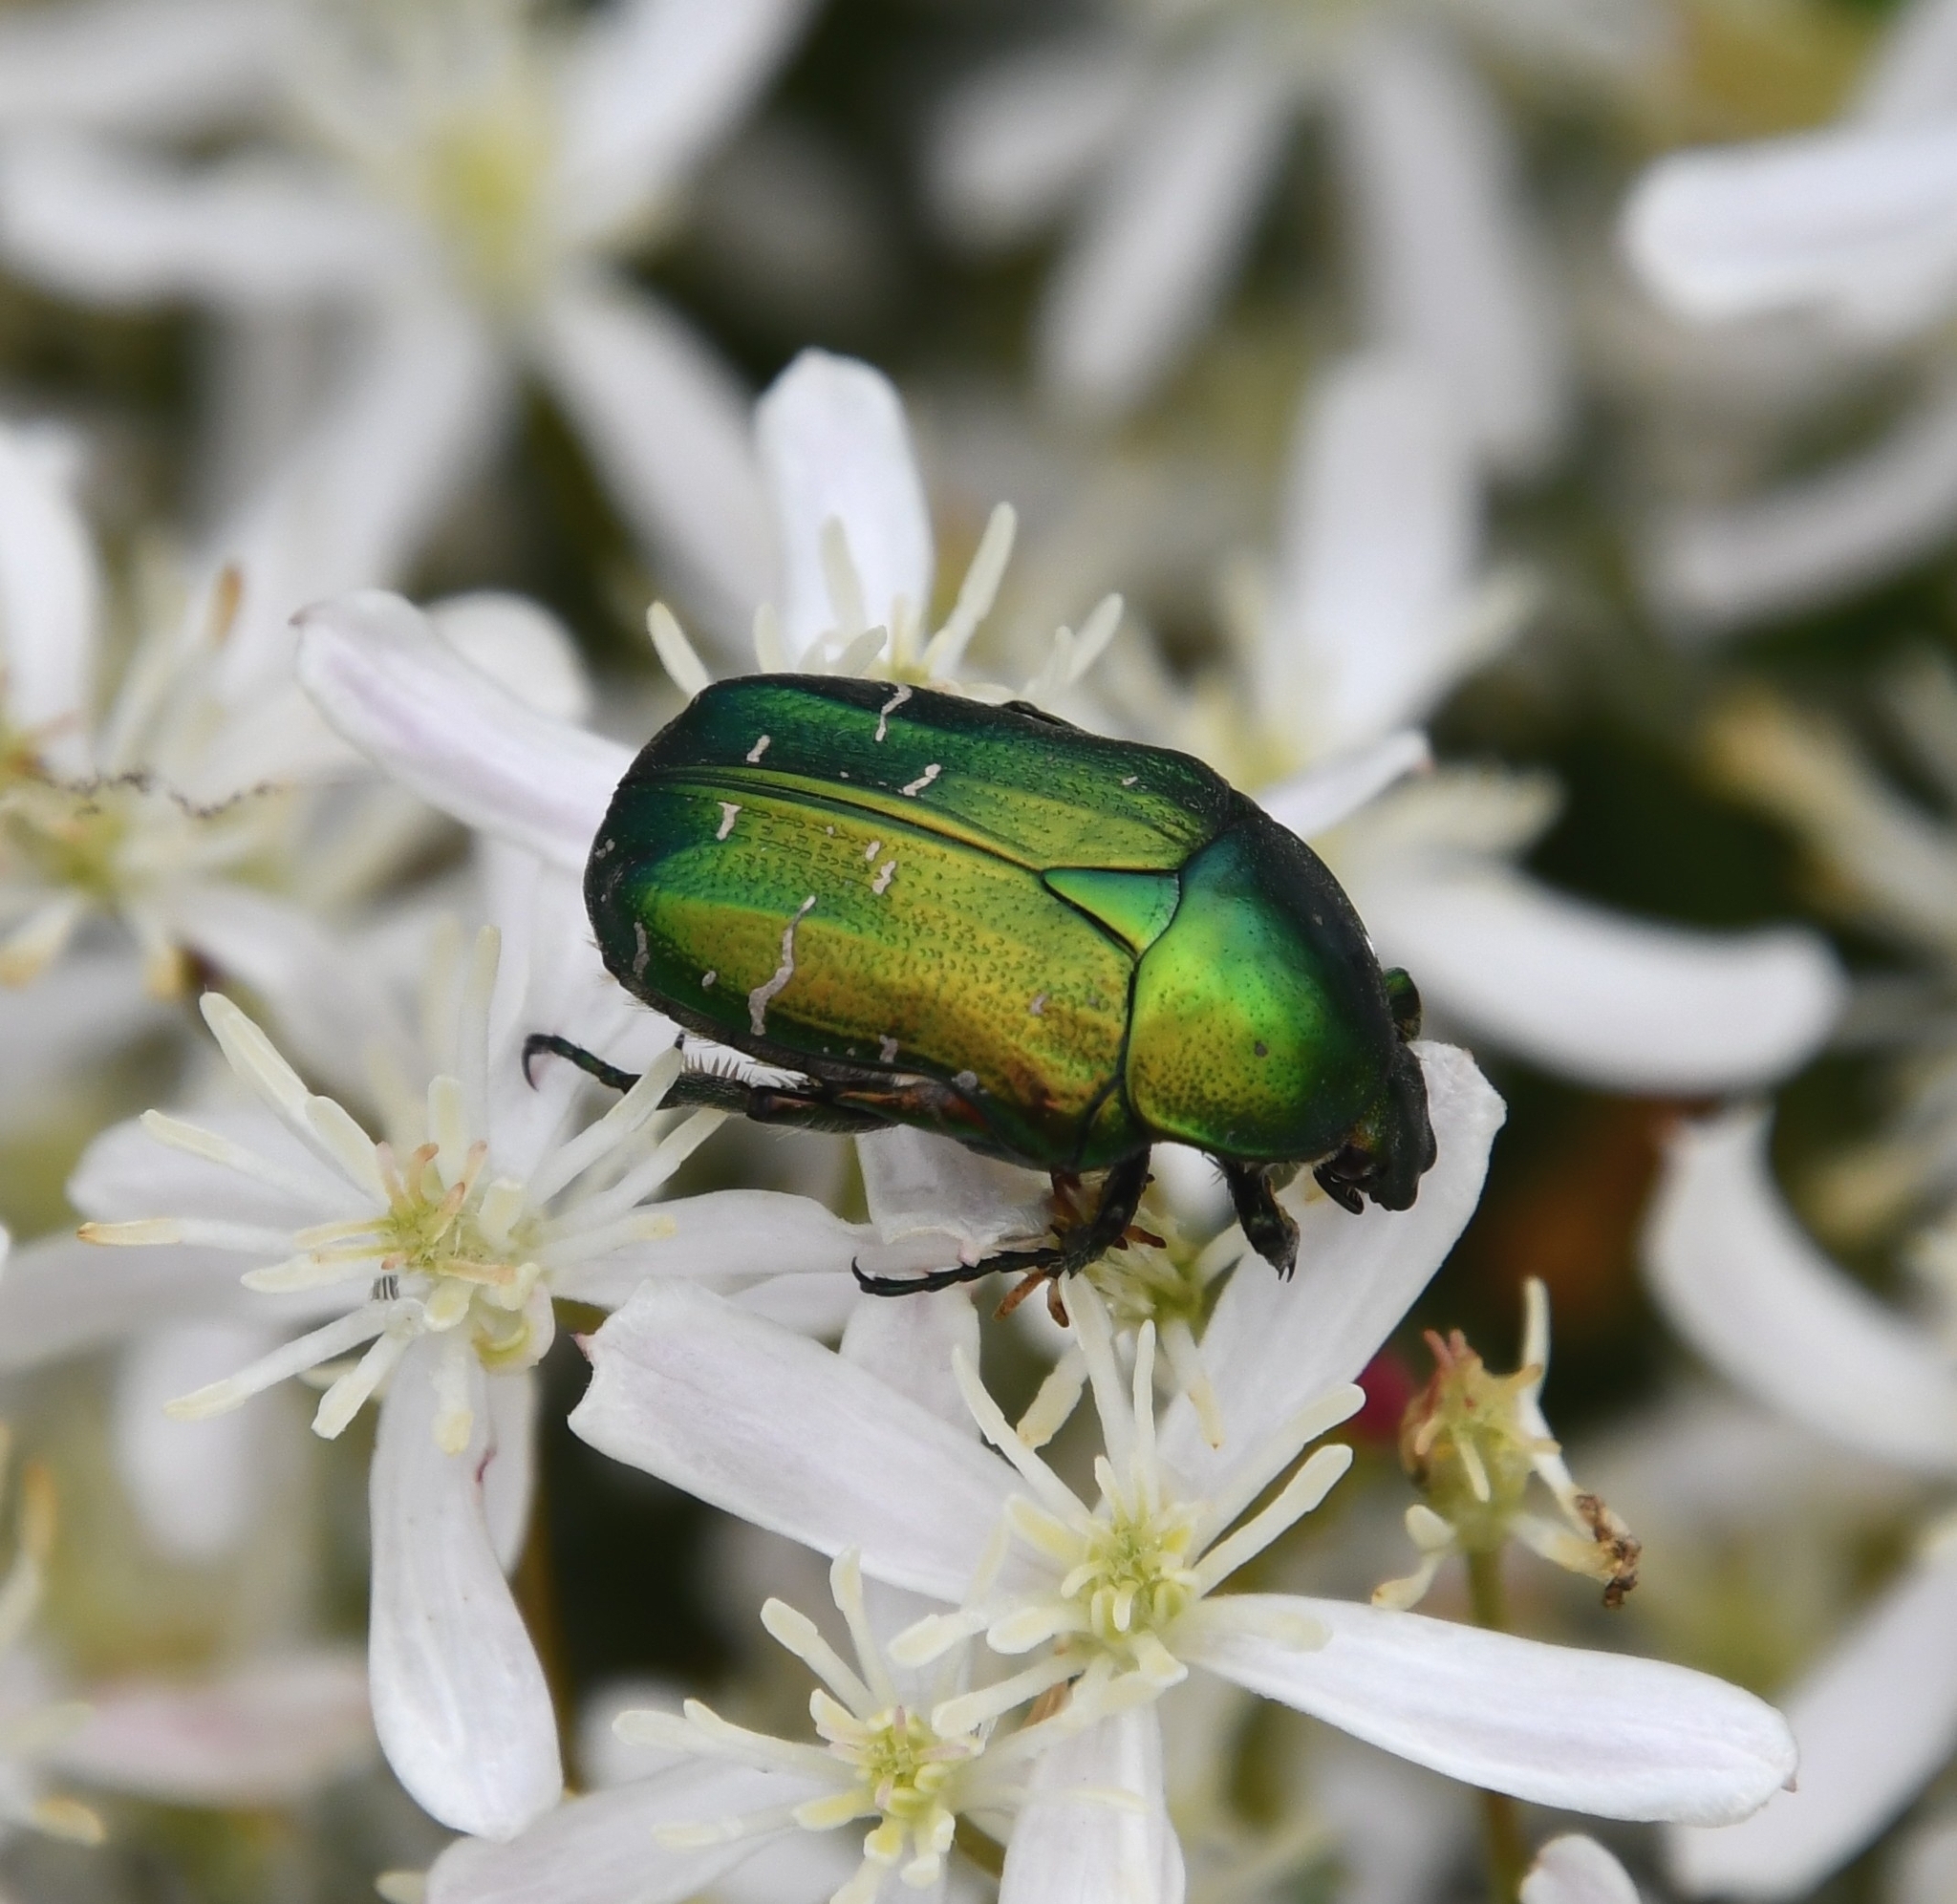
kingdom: Animalia
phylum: Arthropoda
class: Insecta
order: Coleoptera
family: Scarabaeidae
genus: Cetonia
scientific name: Cetonia aurata
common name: Rose chafer
